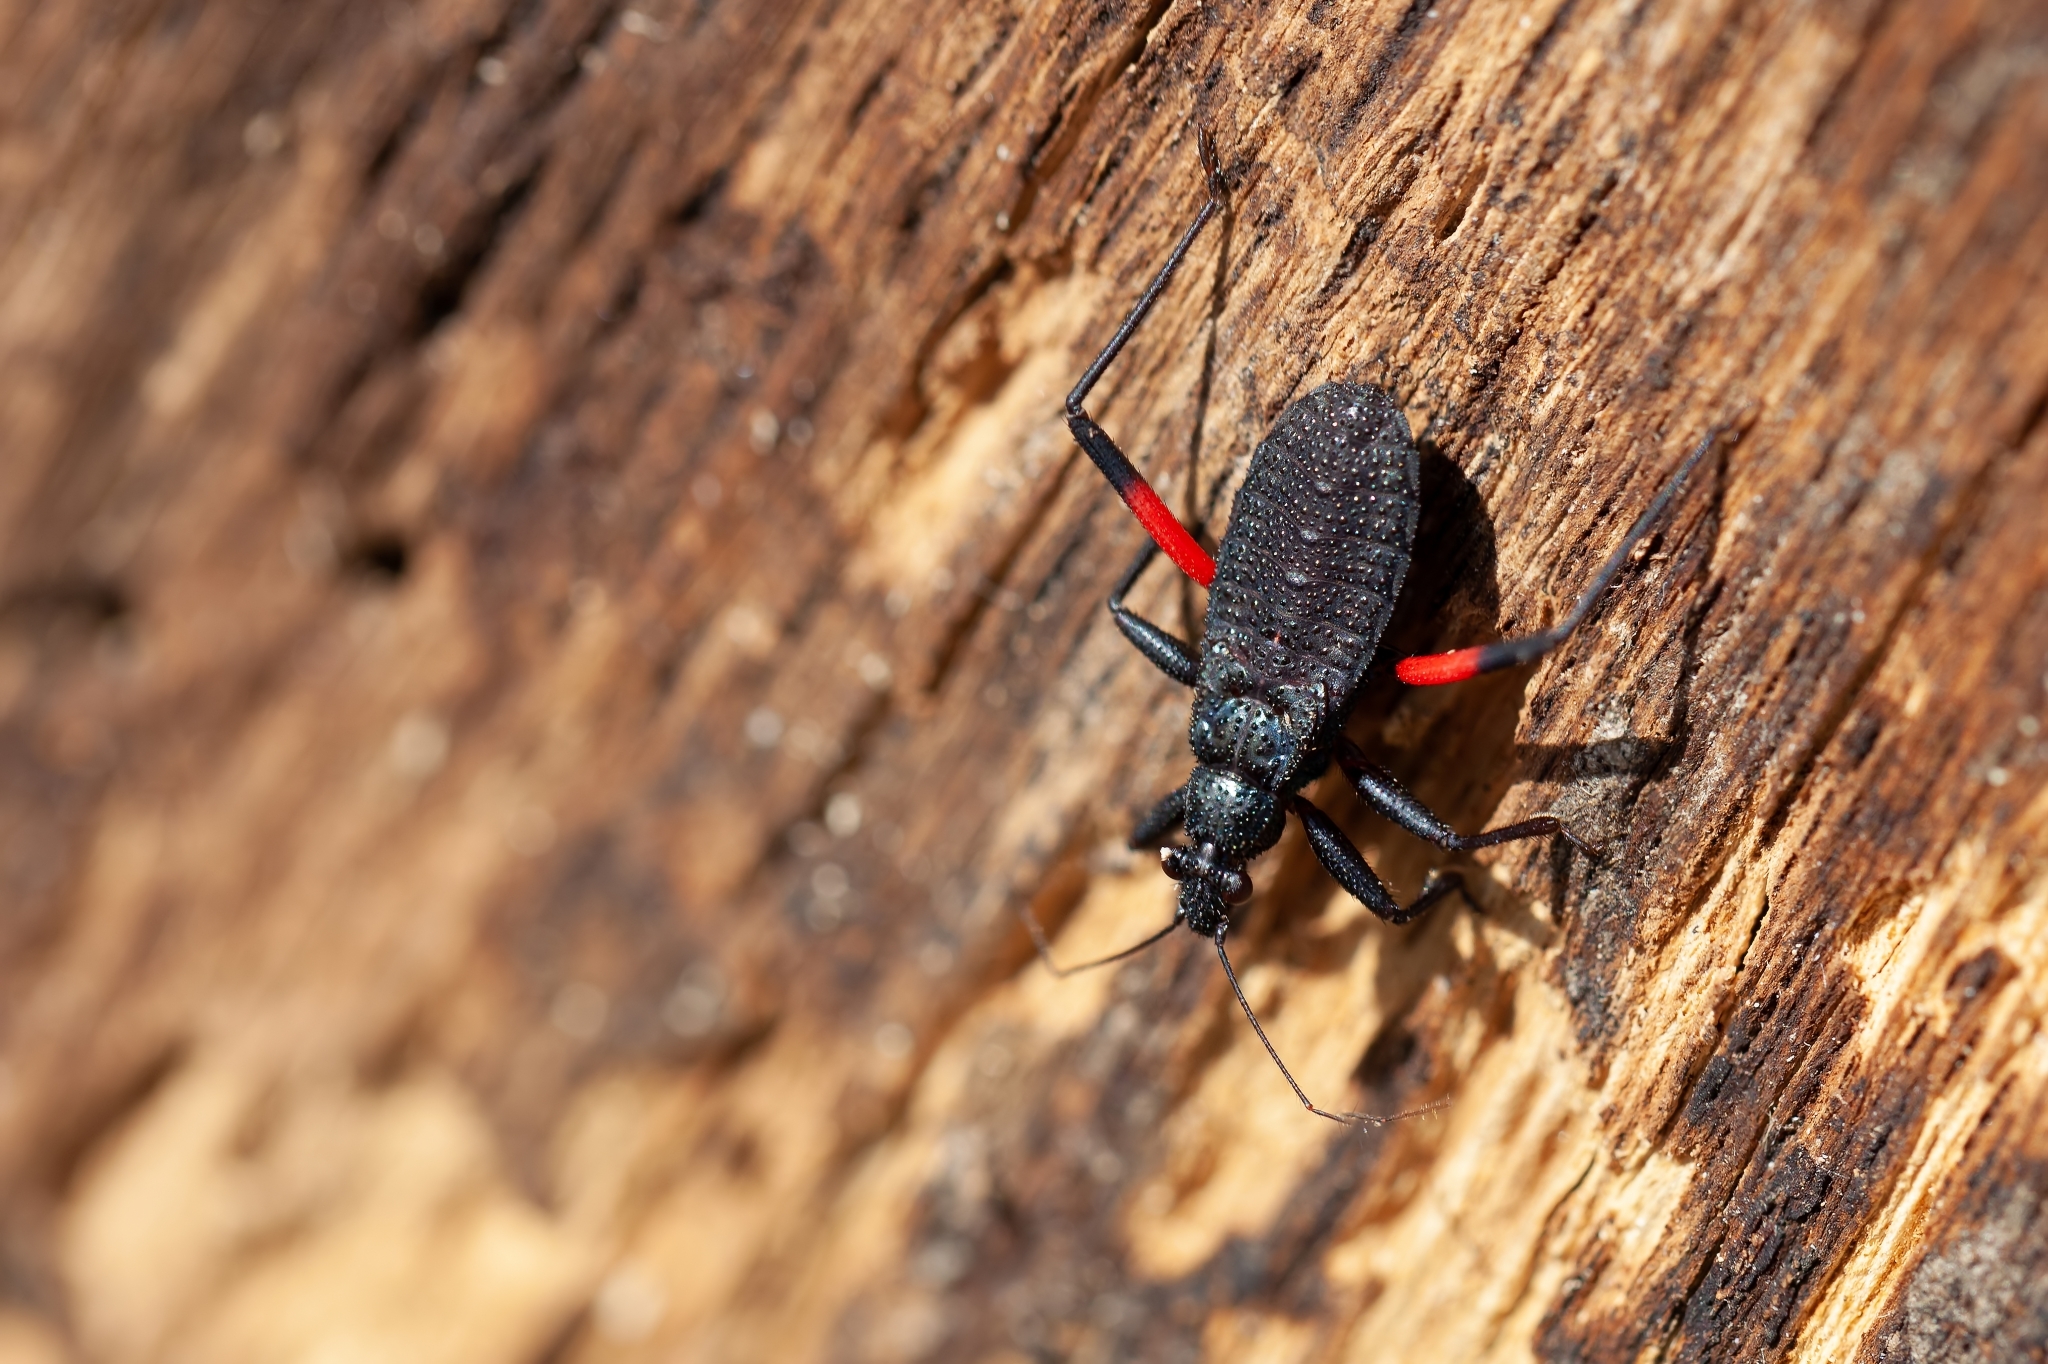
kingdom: Animalia
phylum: Arthropoda
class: Insecta
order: Hemiptera
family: Reduviidae
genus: Microtomus
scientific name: Microtomus purcis
